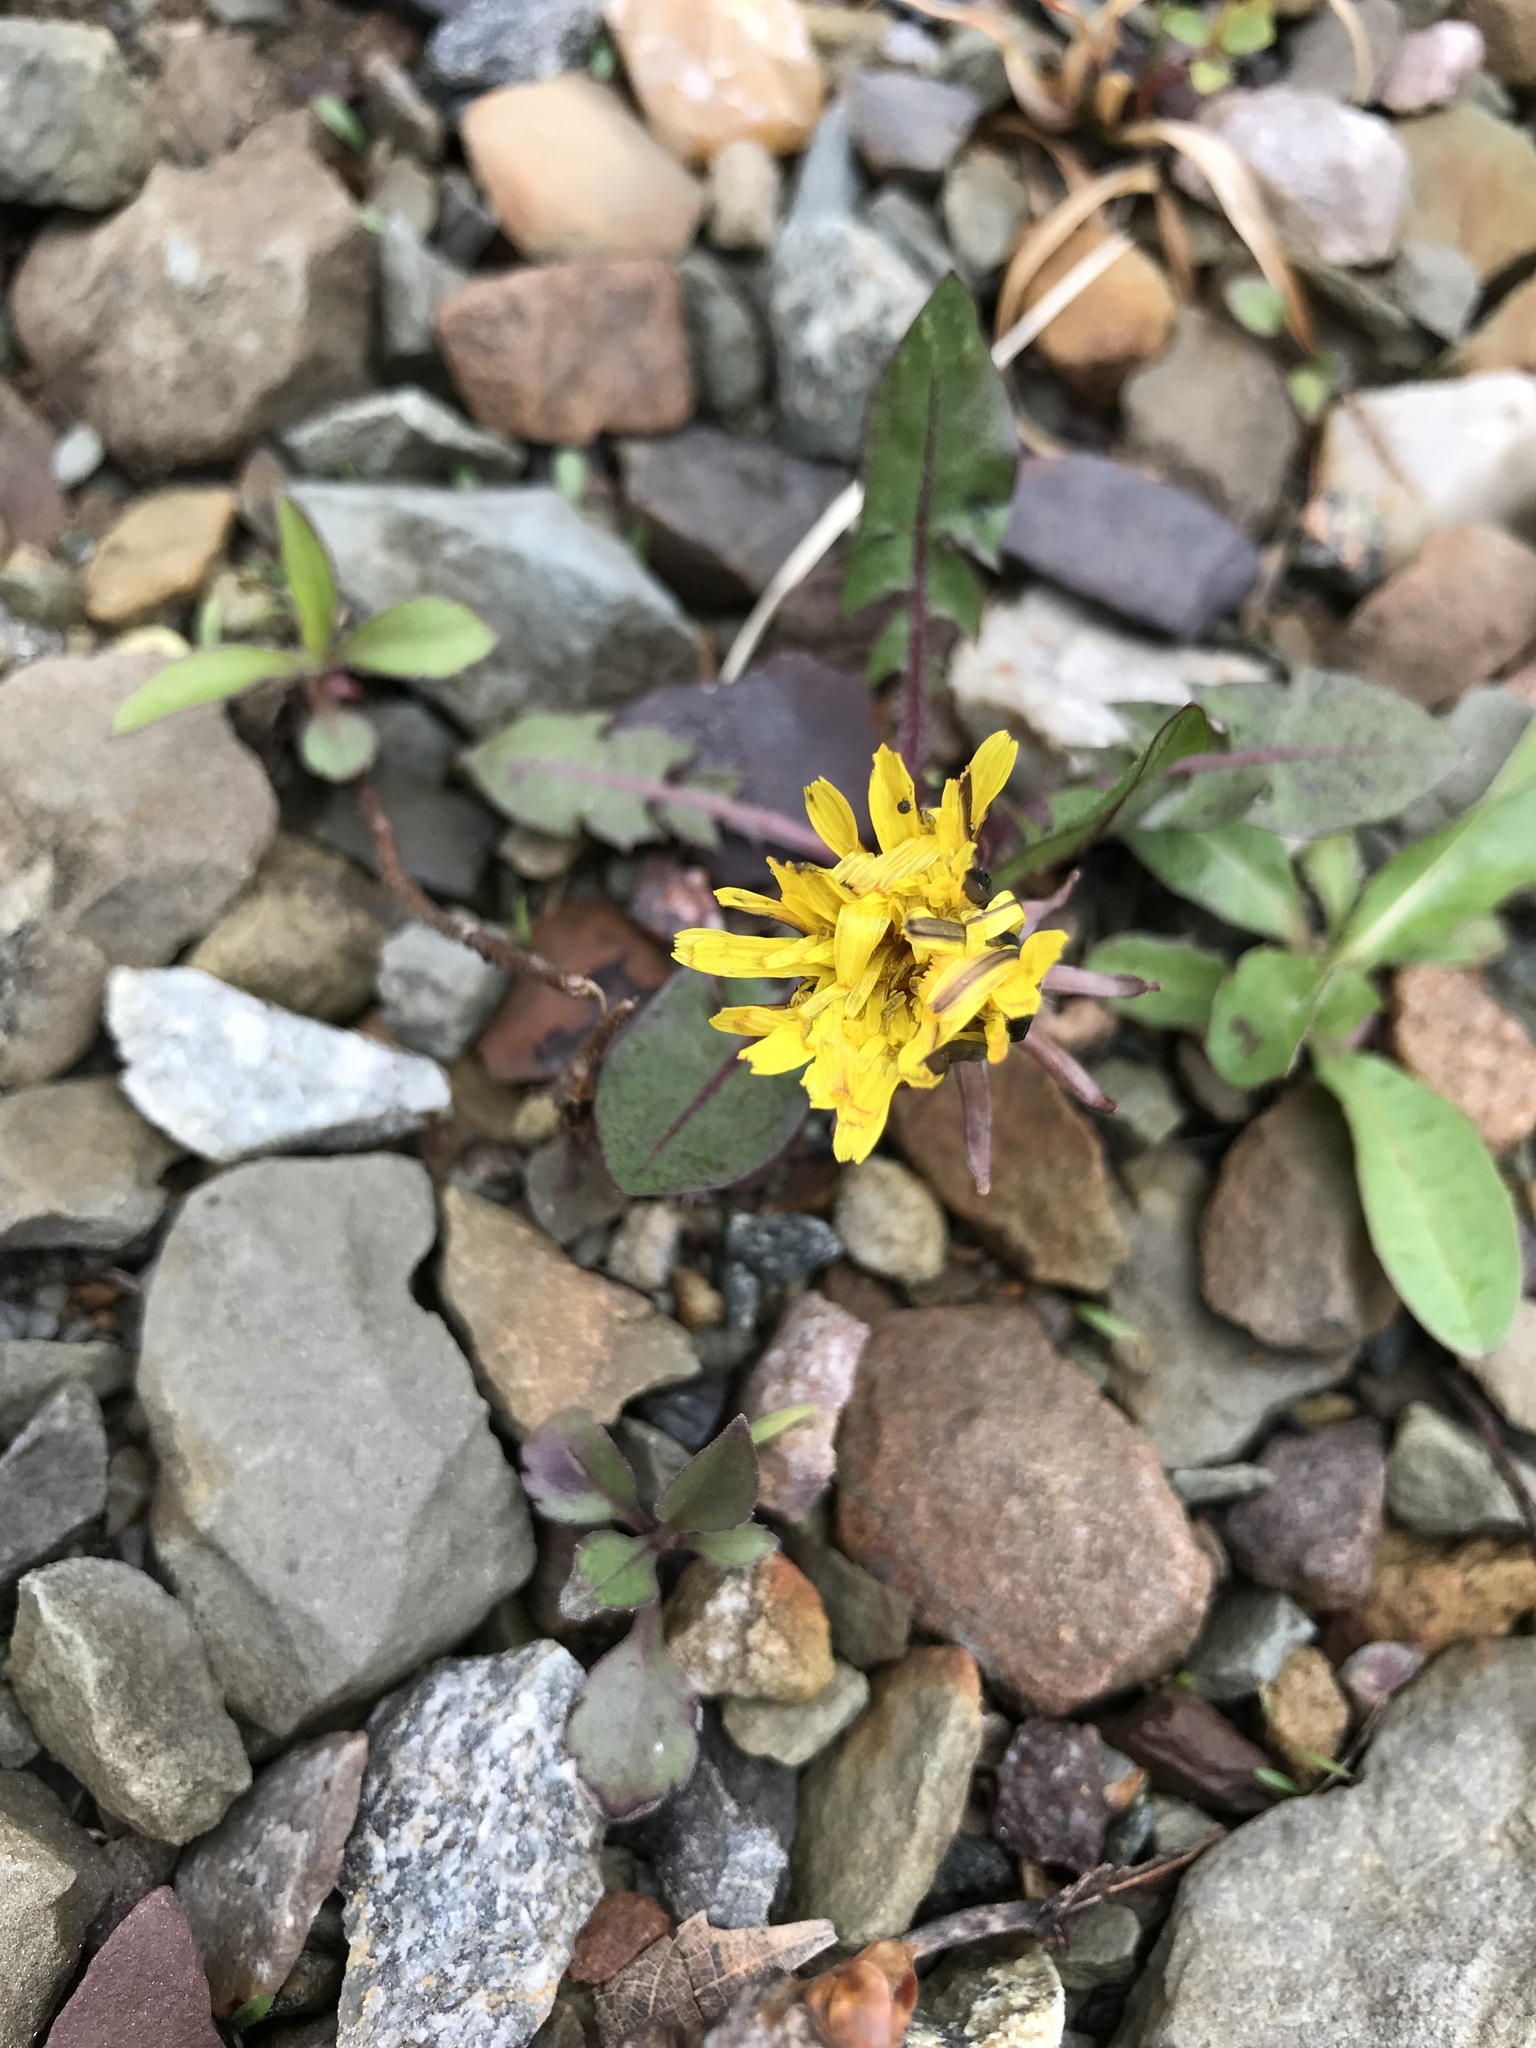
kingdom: Plantae
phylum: Tracheophyta
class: Magnoliopsida
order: Asterales
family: Asteraceae
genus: Taraxacum
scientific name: Taraxacum officinale
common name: Common dandelion
